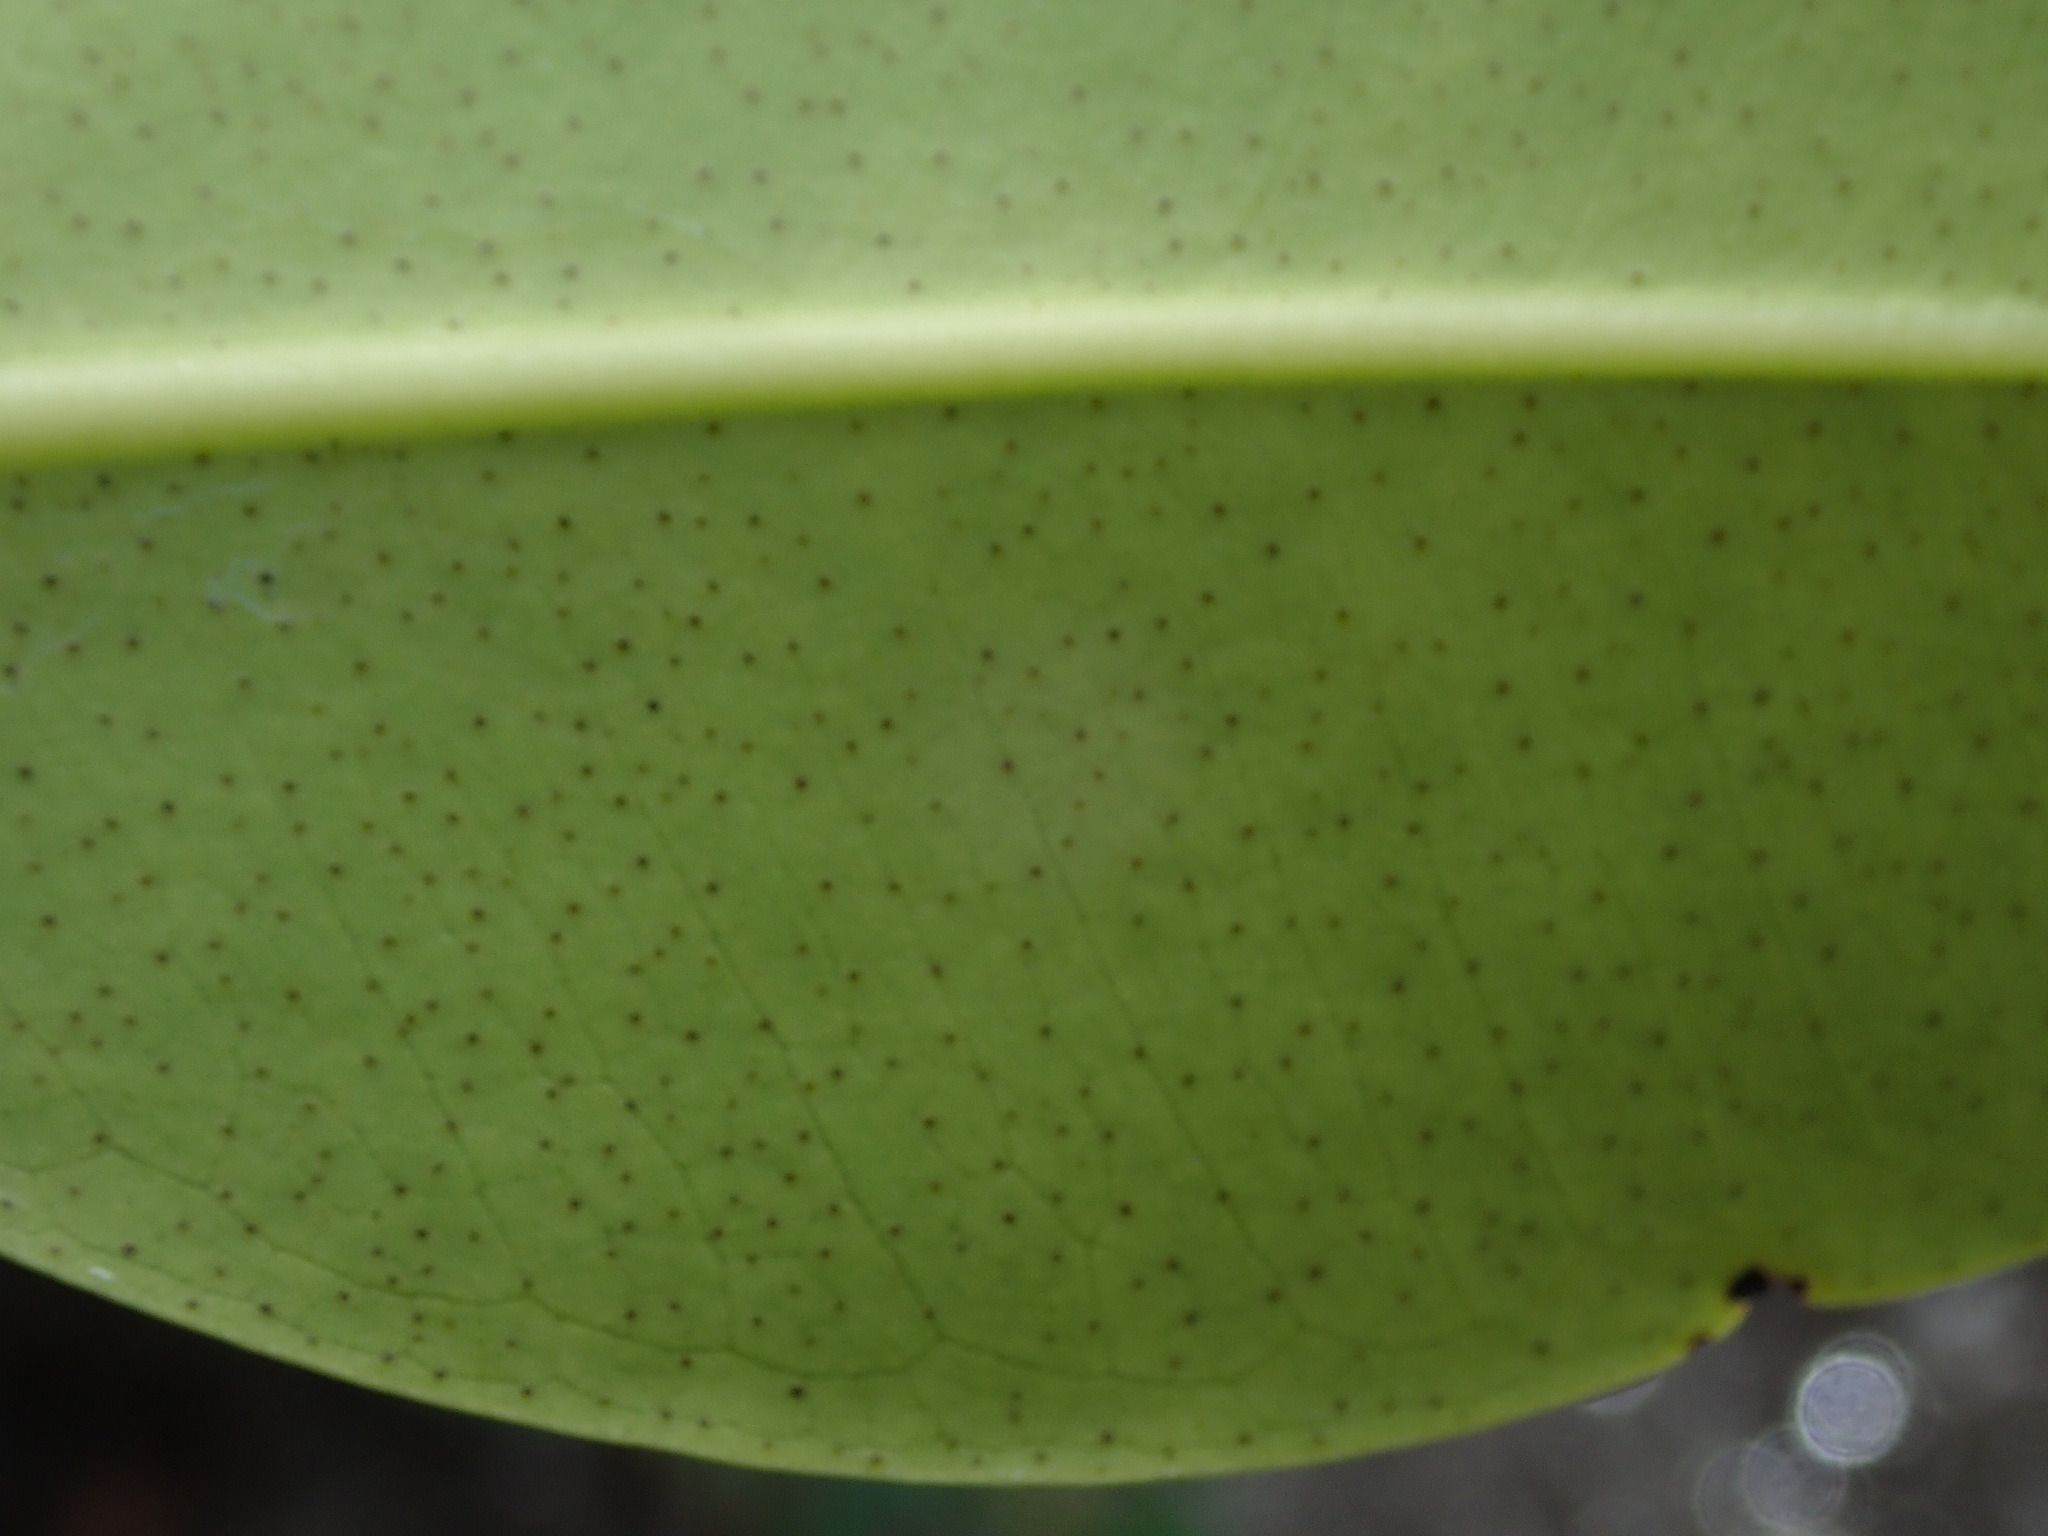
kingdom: Plantae
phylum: Tracheophyta
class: Magnoliopsida
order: Myrtales
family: Combretaceae
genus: Laguncularia
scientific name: Laguncularia racemosa
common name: White mangrove
